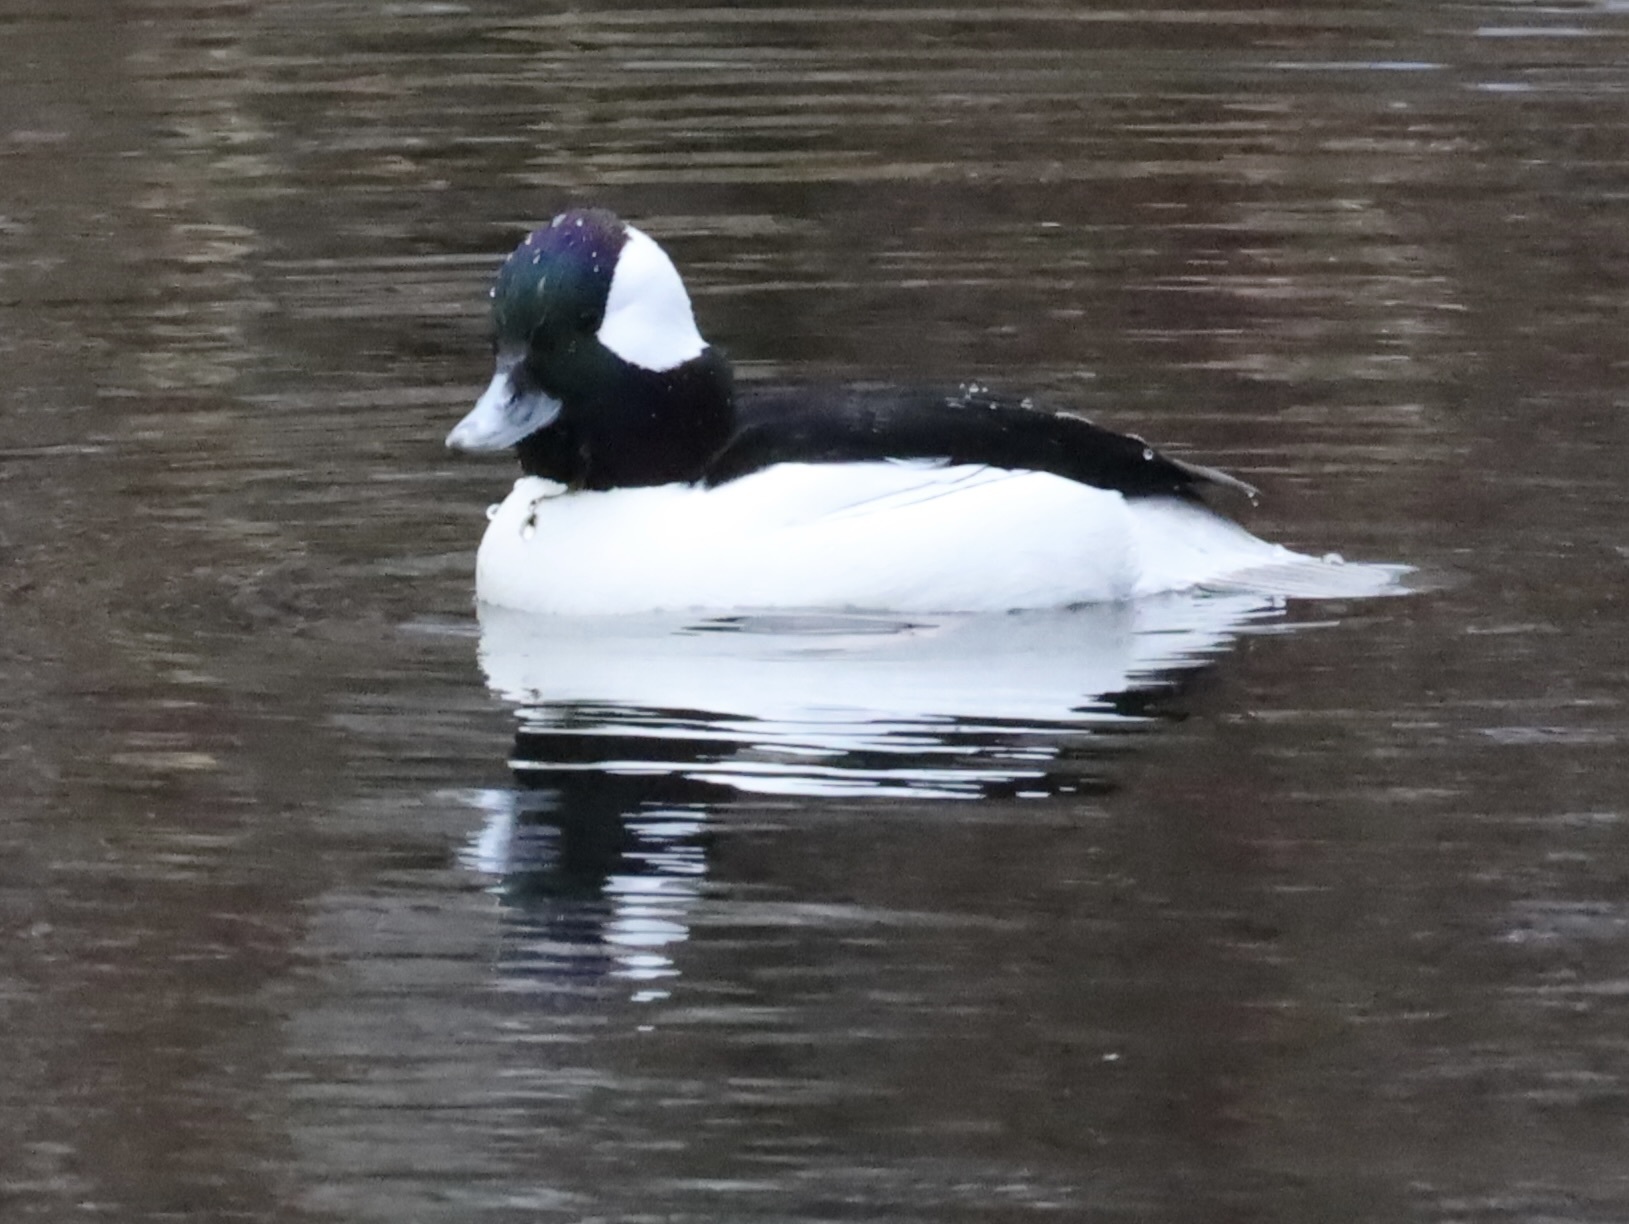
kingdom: Animalia
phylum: Chordata
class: Aves
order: Anseriformes
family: Anatidae
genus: Bucephala
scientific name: Bucephala albeola
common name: Bufflehead
